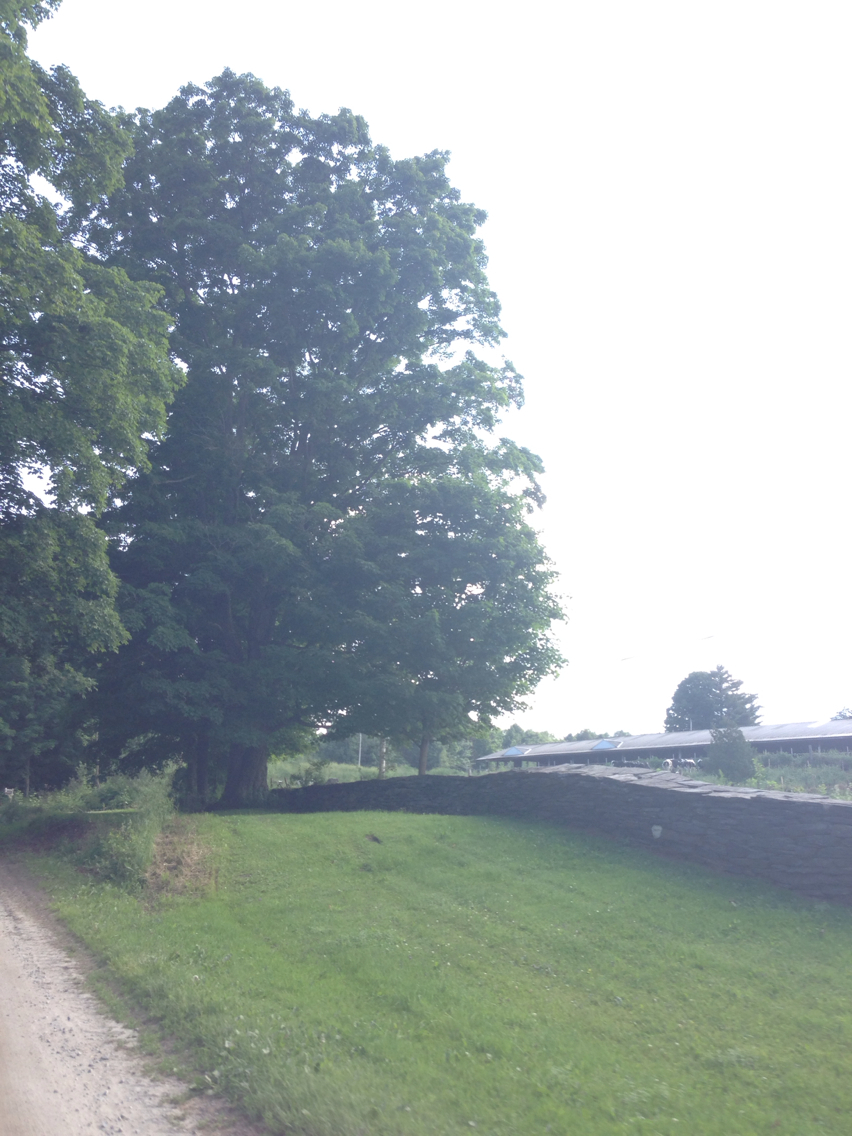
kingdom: Plantae
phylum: Tracheophyta
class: Magnoliopsida
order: Sapindales
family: Sapindaceae
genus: Acer
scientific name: Acer saccharum
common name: Sugar maple
